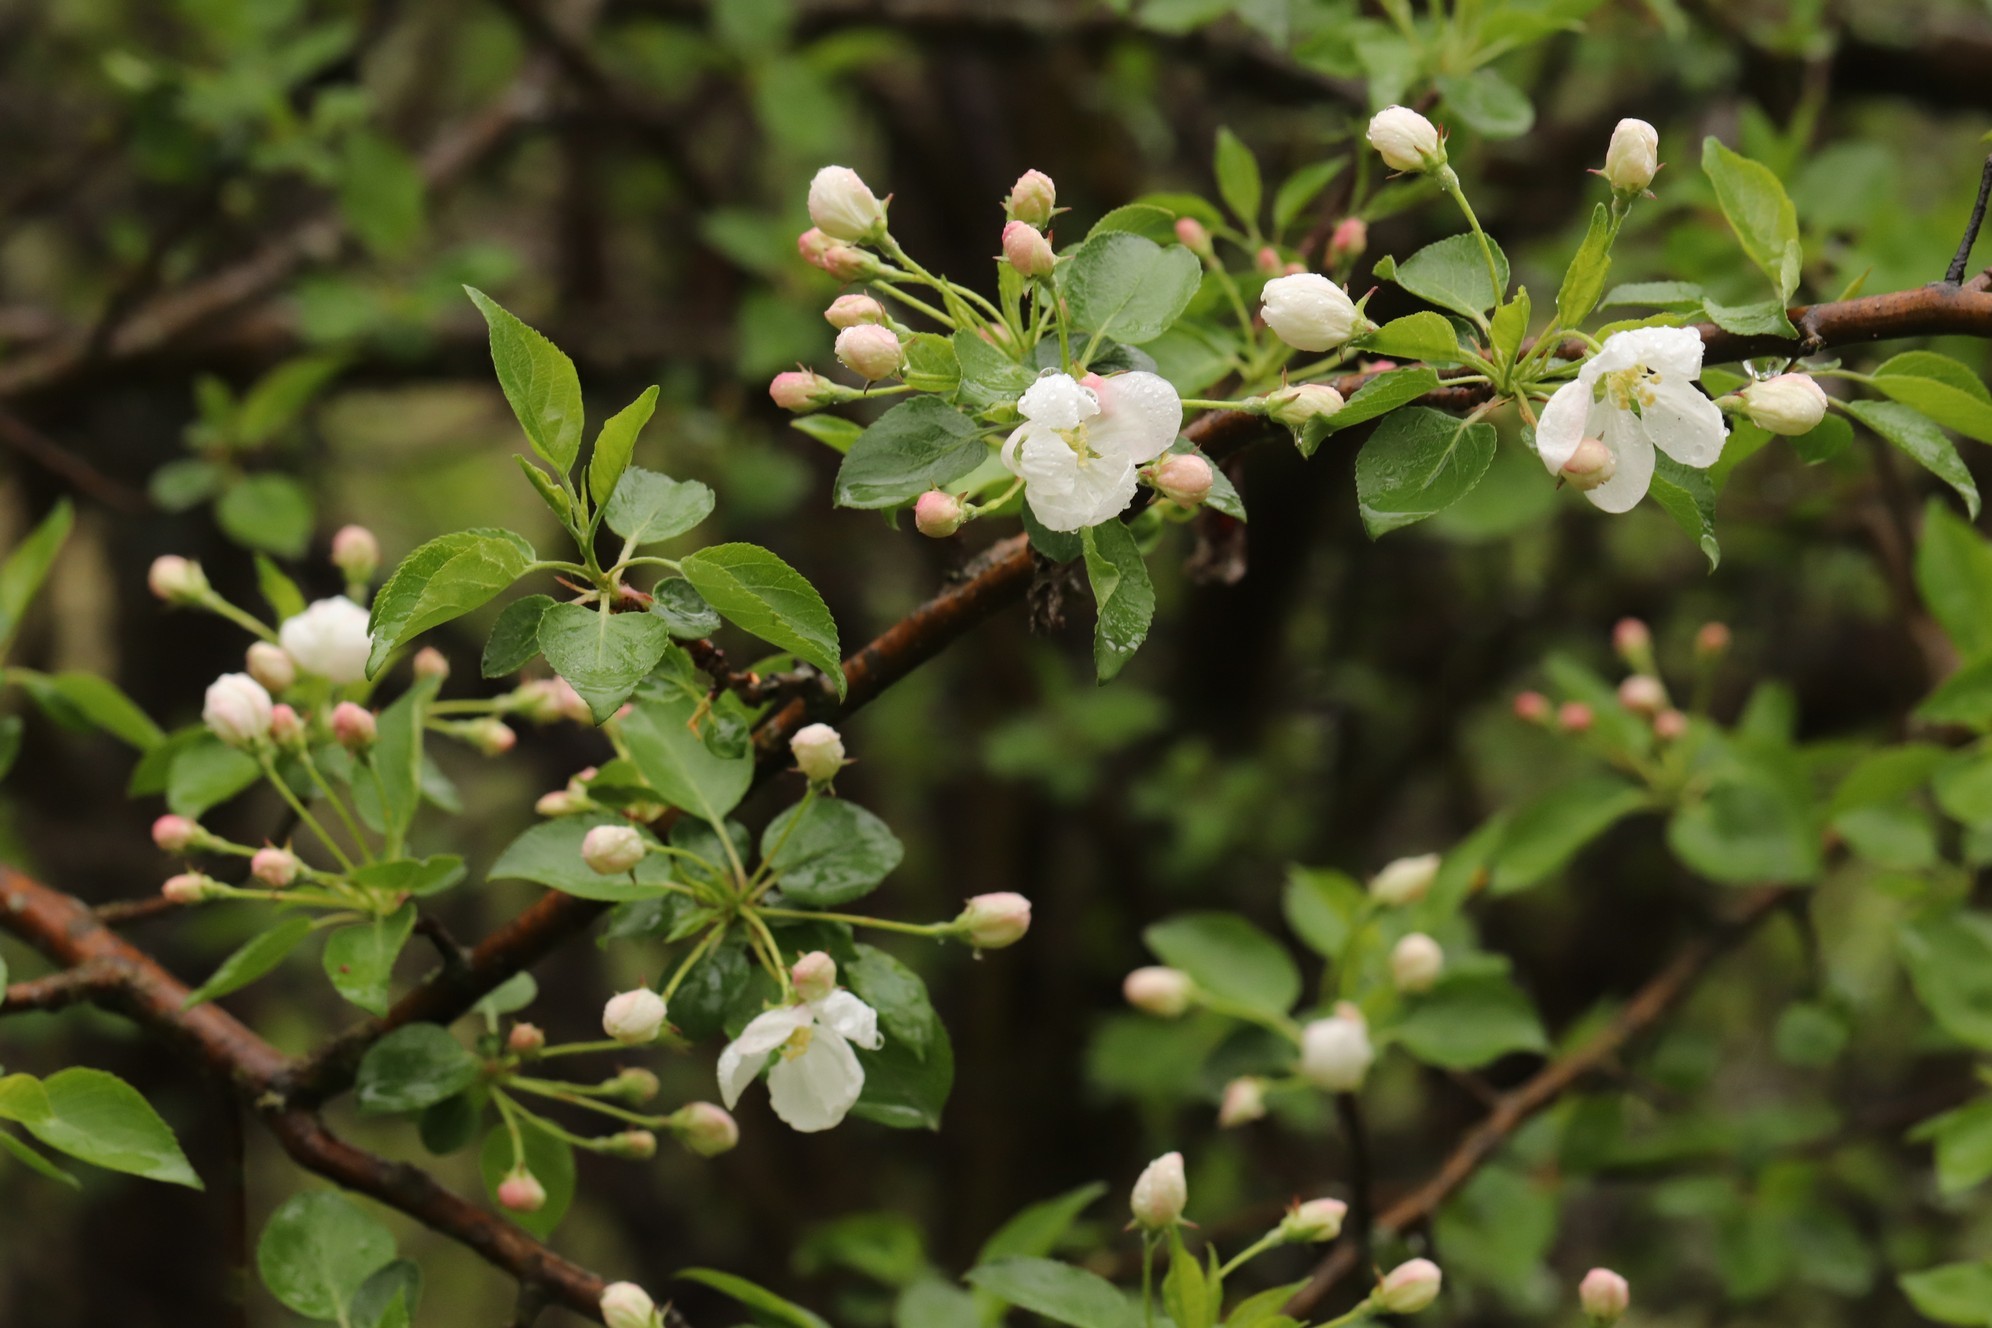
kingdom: Plantae
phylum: Tracheophyta
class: Magnoliopsida
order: Rosales
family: Rosaceae
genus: Malus
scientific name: Malus baccata
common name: Siberian crab
